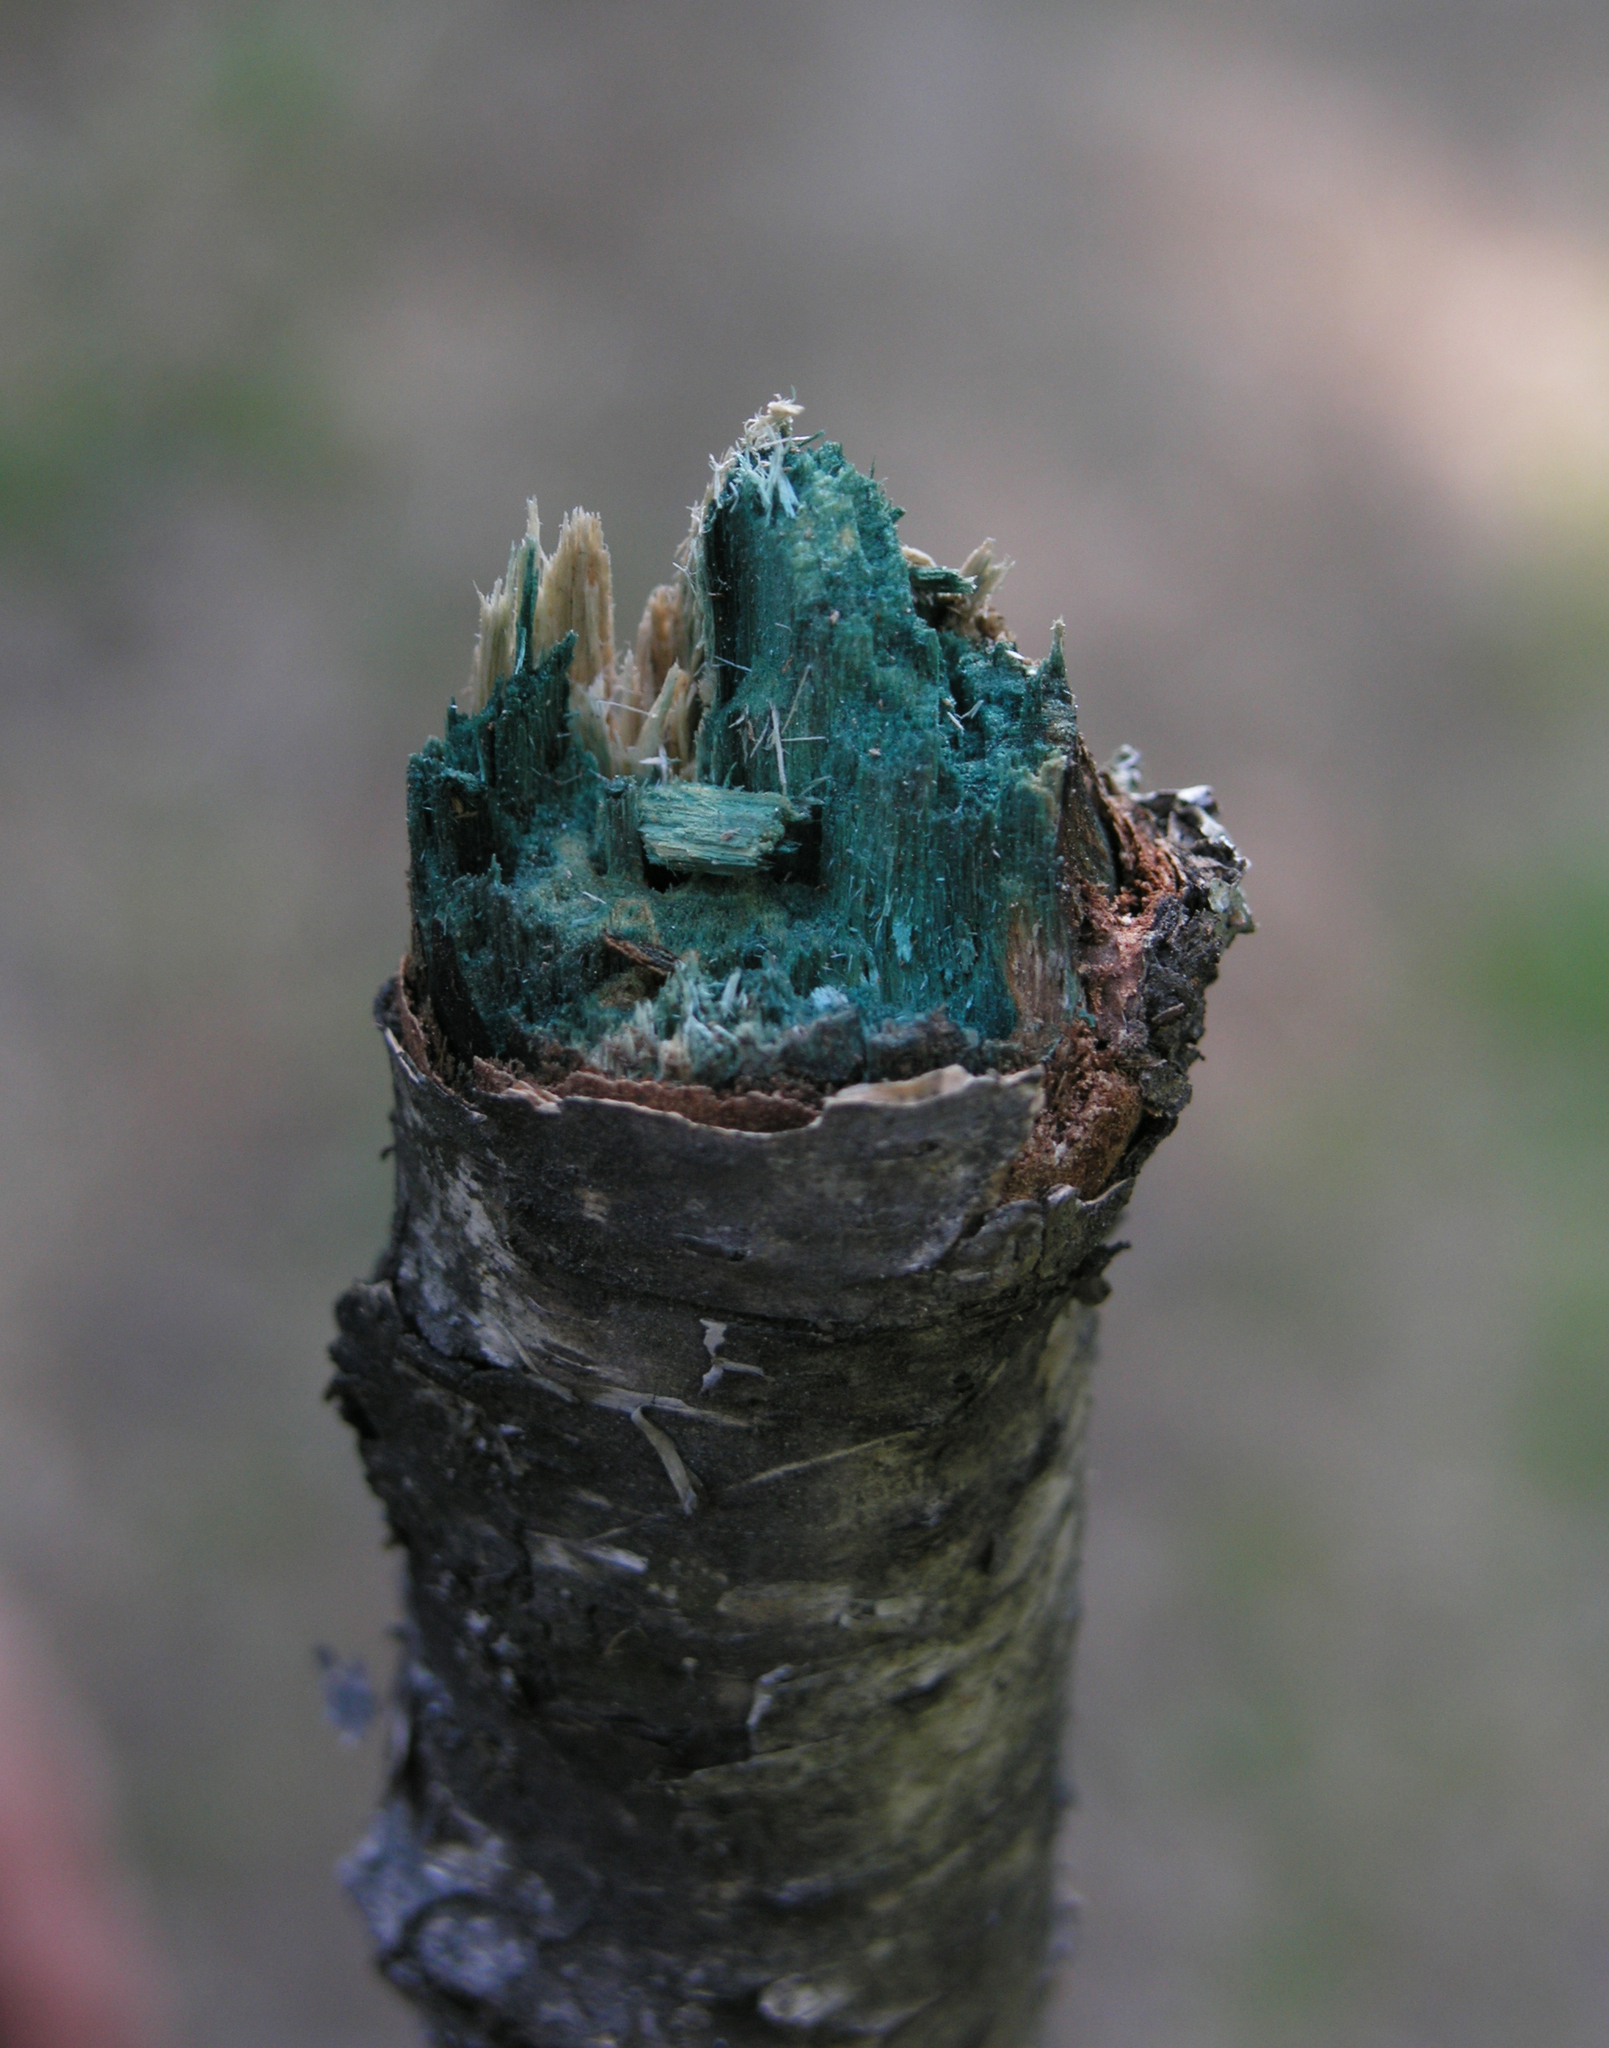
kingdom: Fungi
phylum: Ascomycota
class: Leotiomycetes
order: Helotiales
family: Chlorociboriaceae
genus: Chlorociboria
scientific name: Chlorociboria
